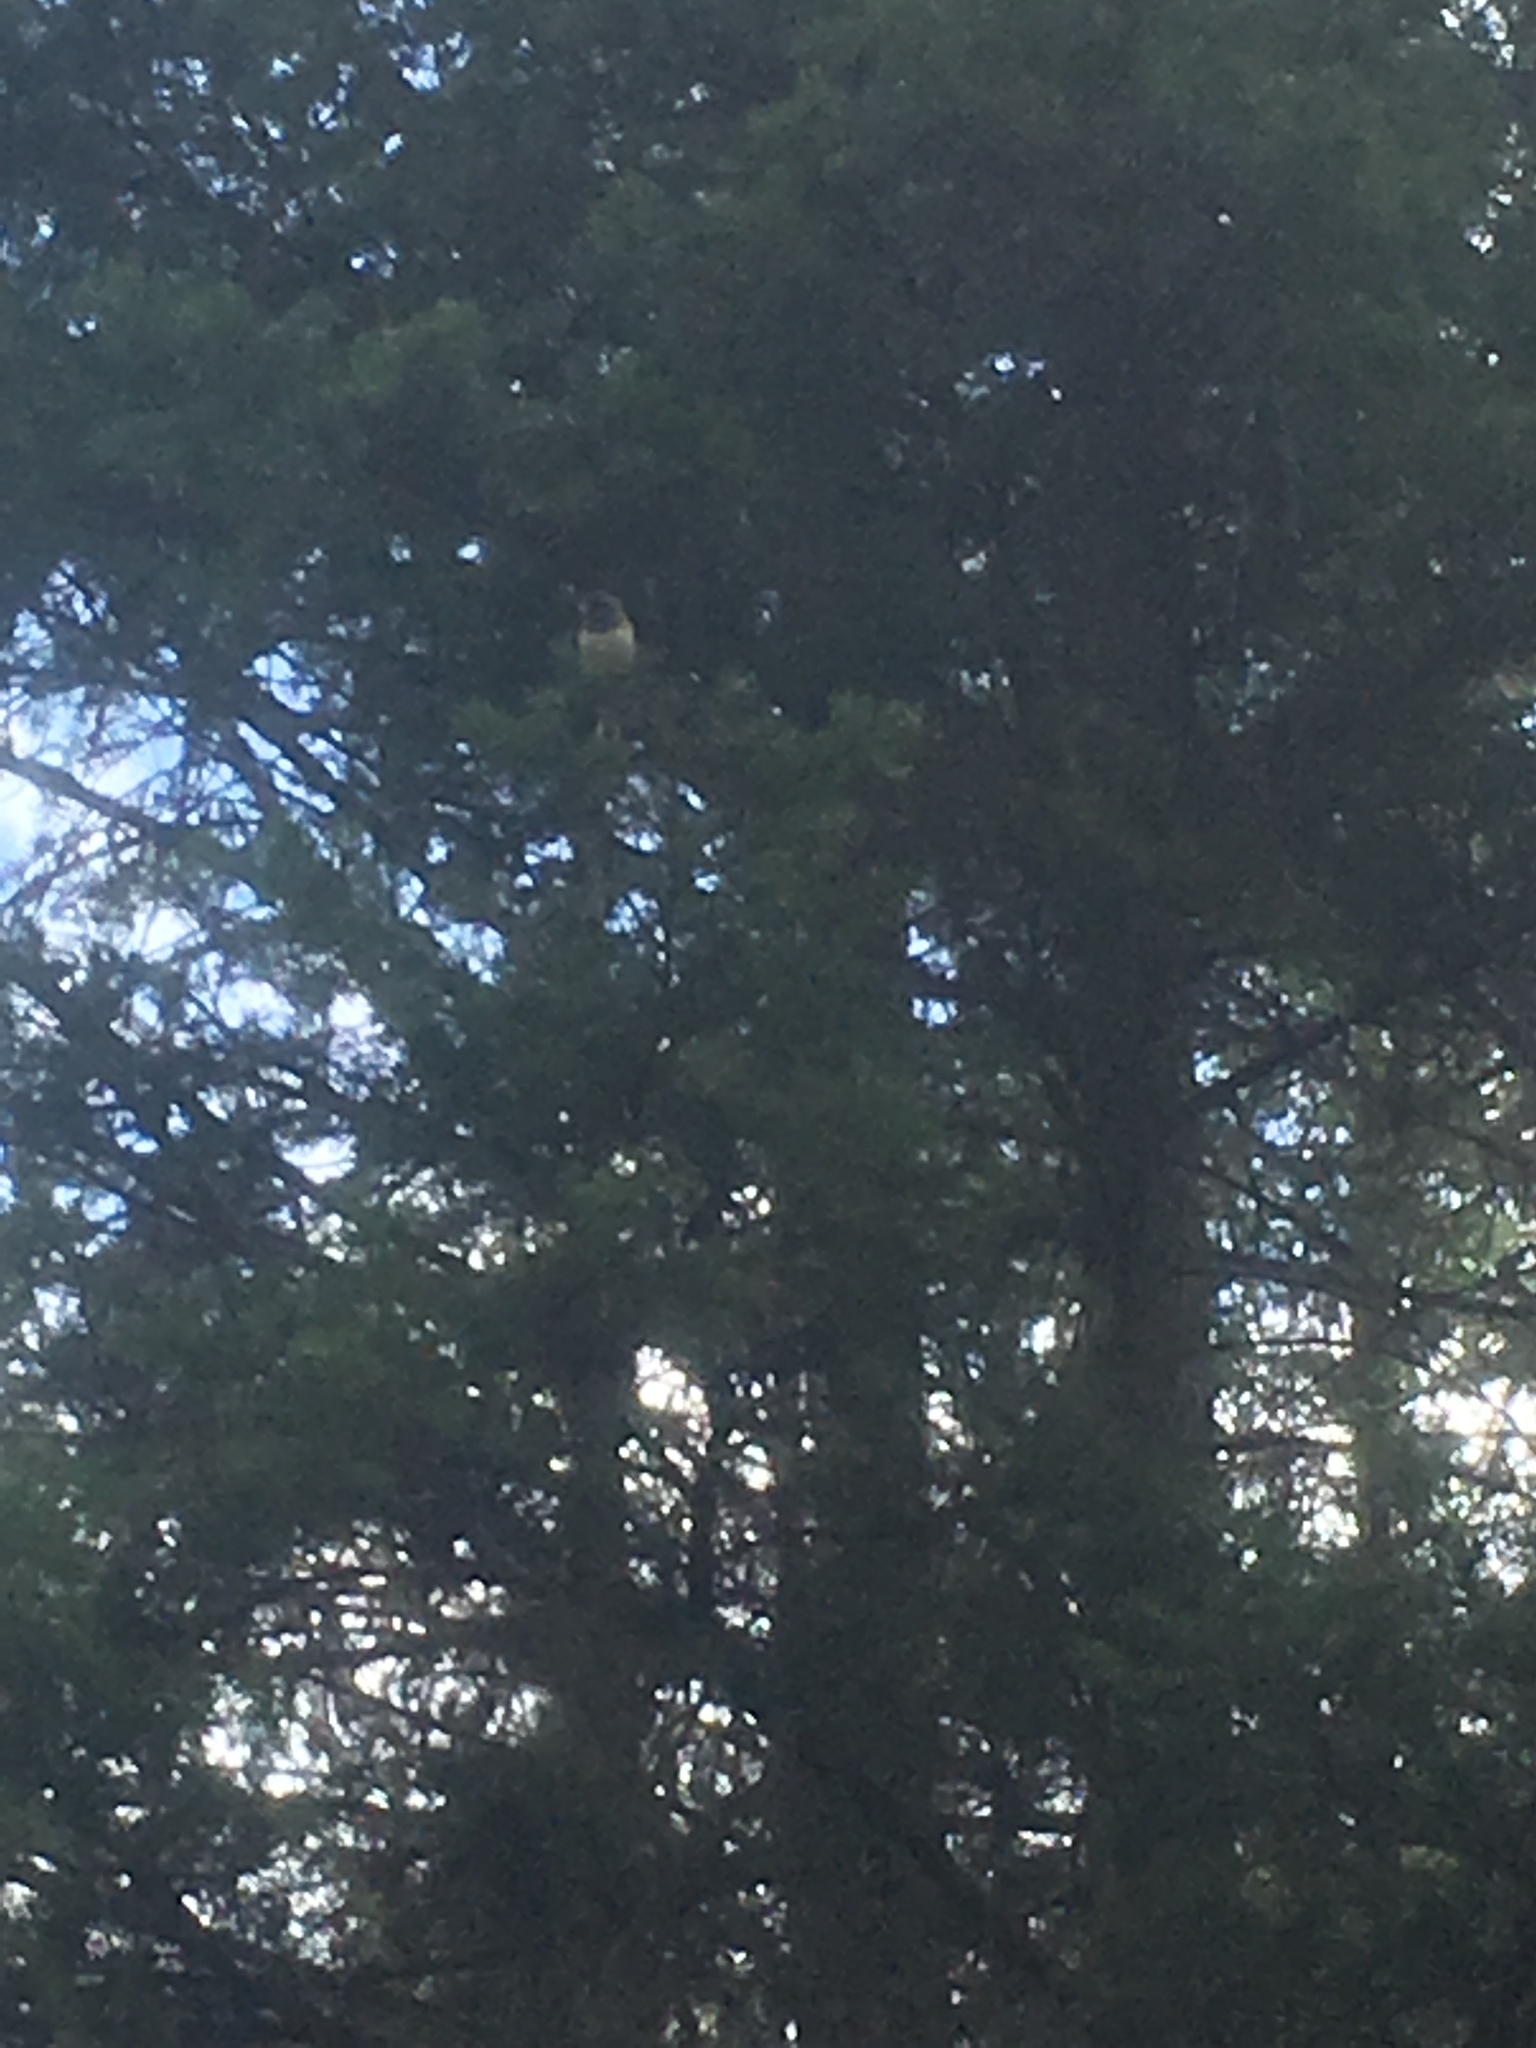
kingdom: Animalia
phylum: Chordata
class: Aves
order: Passeriformes
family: Passerellidae
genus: Junco
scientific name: Junco hyemalis
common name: Dark-eyed junco
